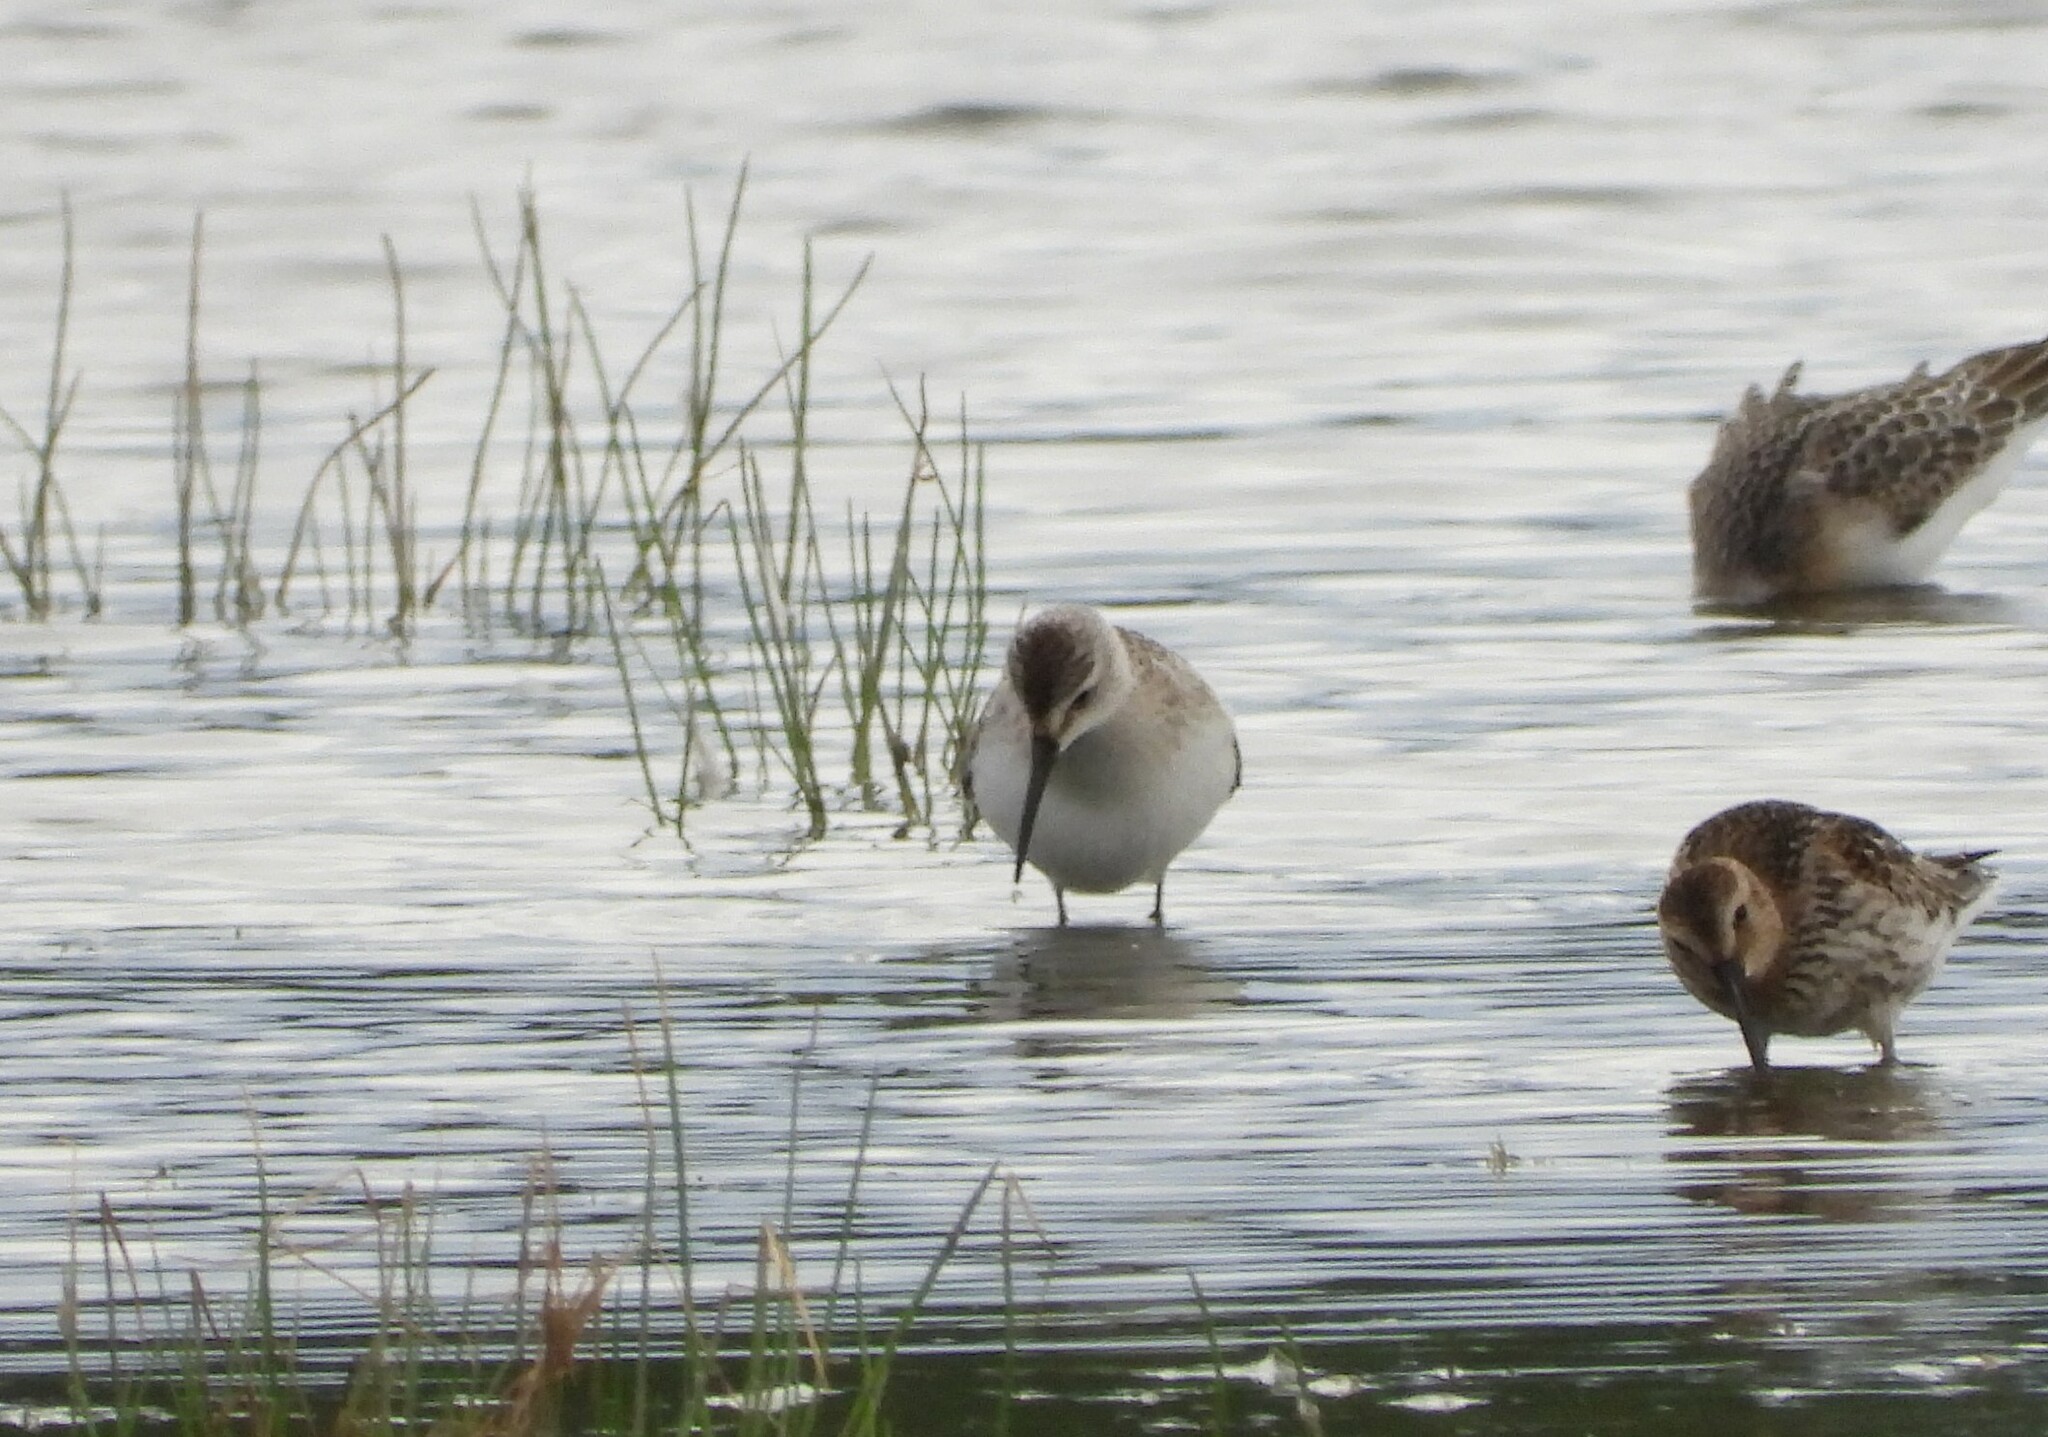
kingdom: Animalia
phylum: Chordata
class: Aves
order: Charadriiformes
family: Scolopacidae
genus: Calidris
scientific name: Calidris ferruginea
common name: Curlew sandpiper
